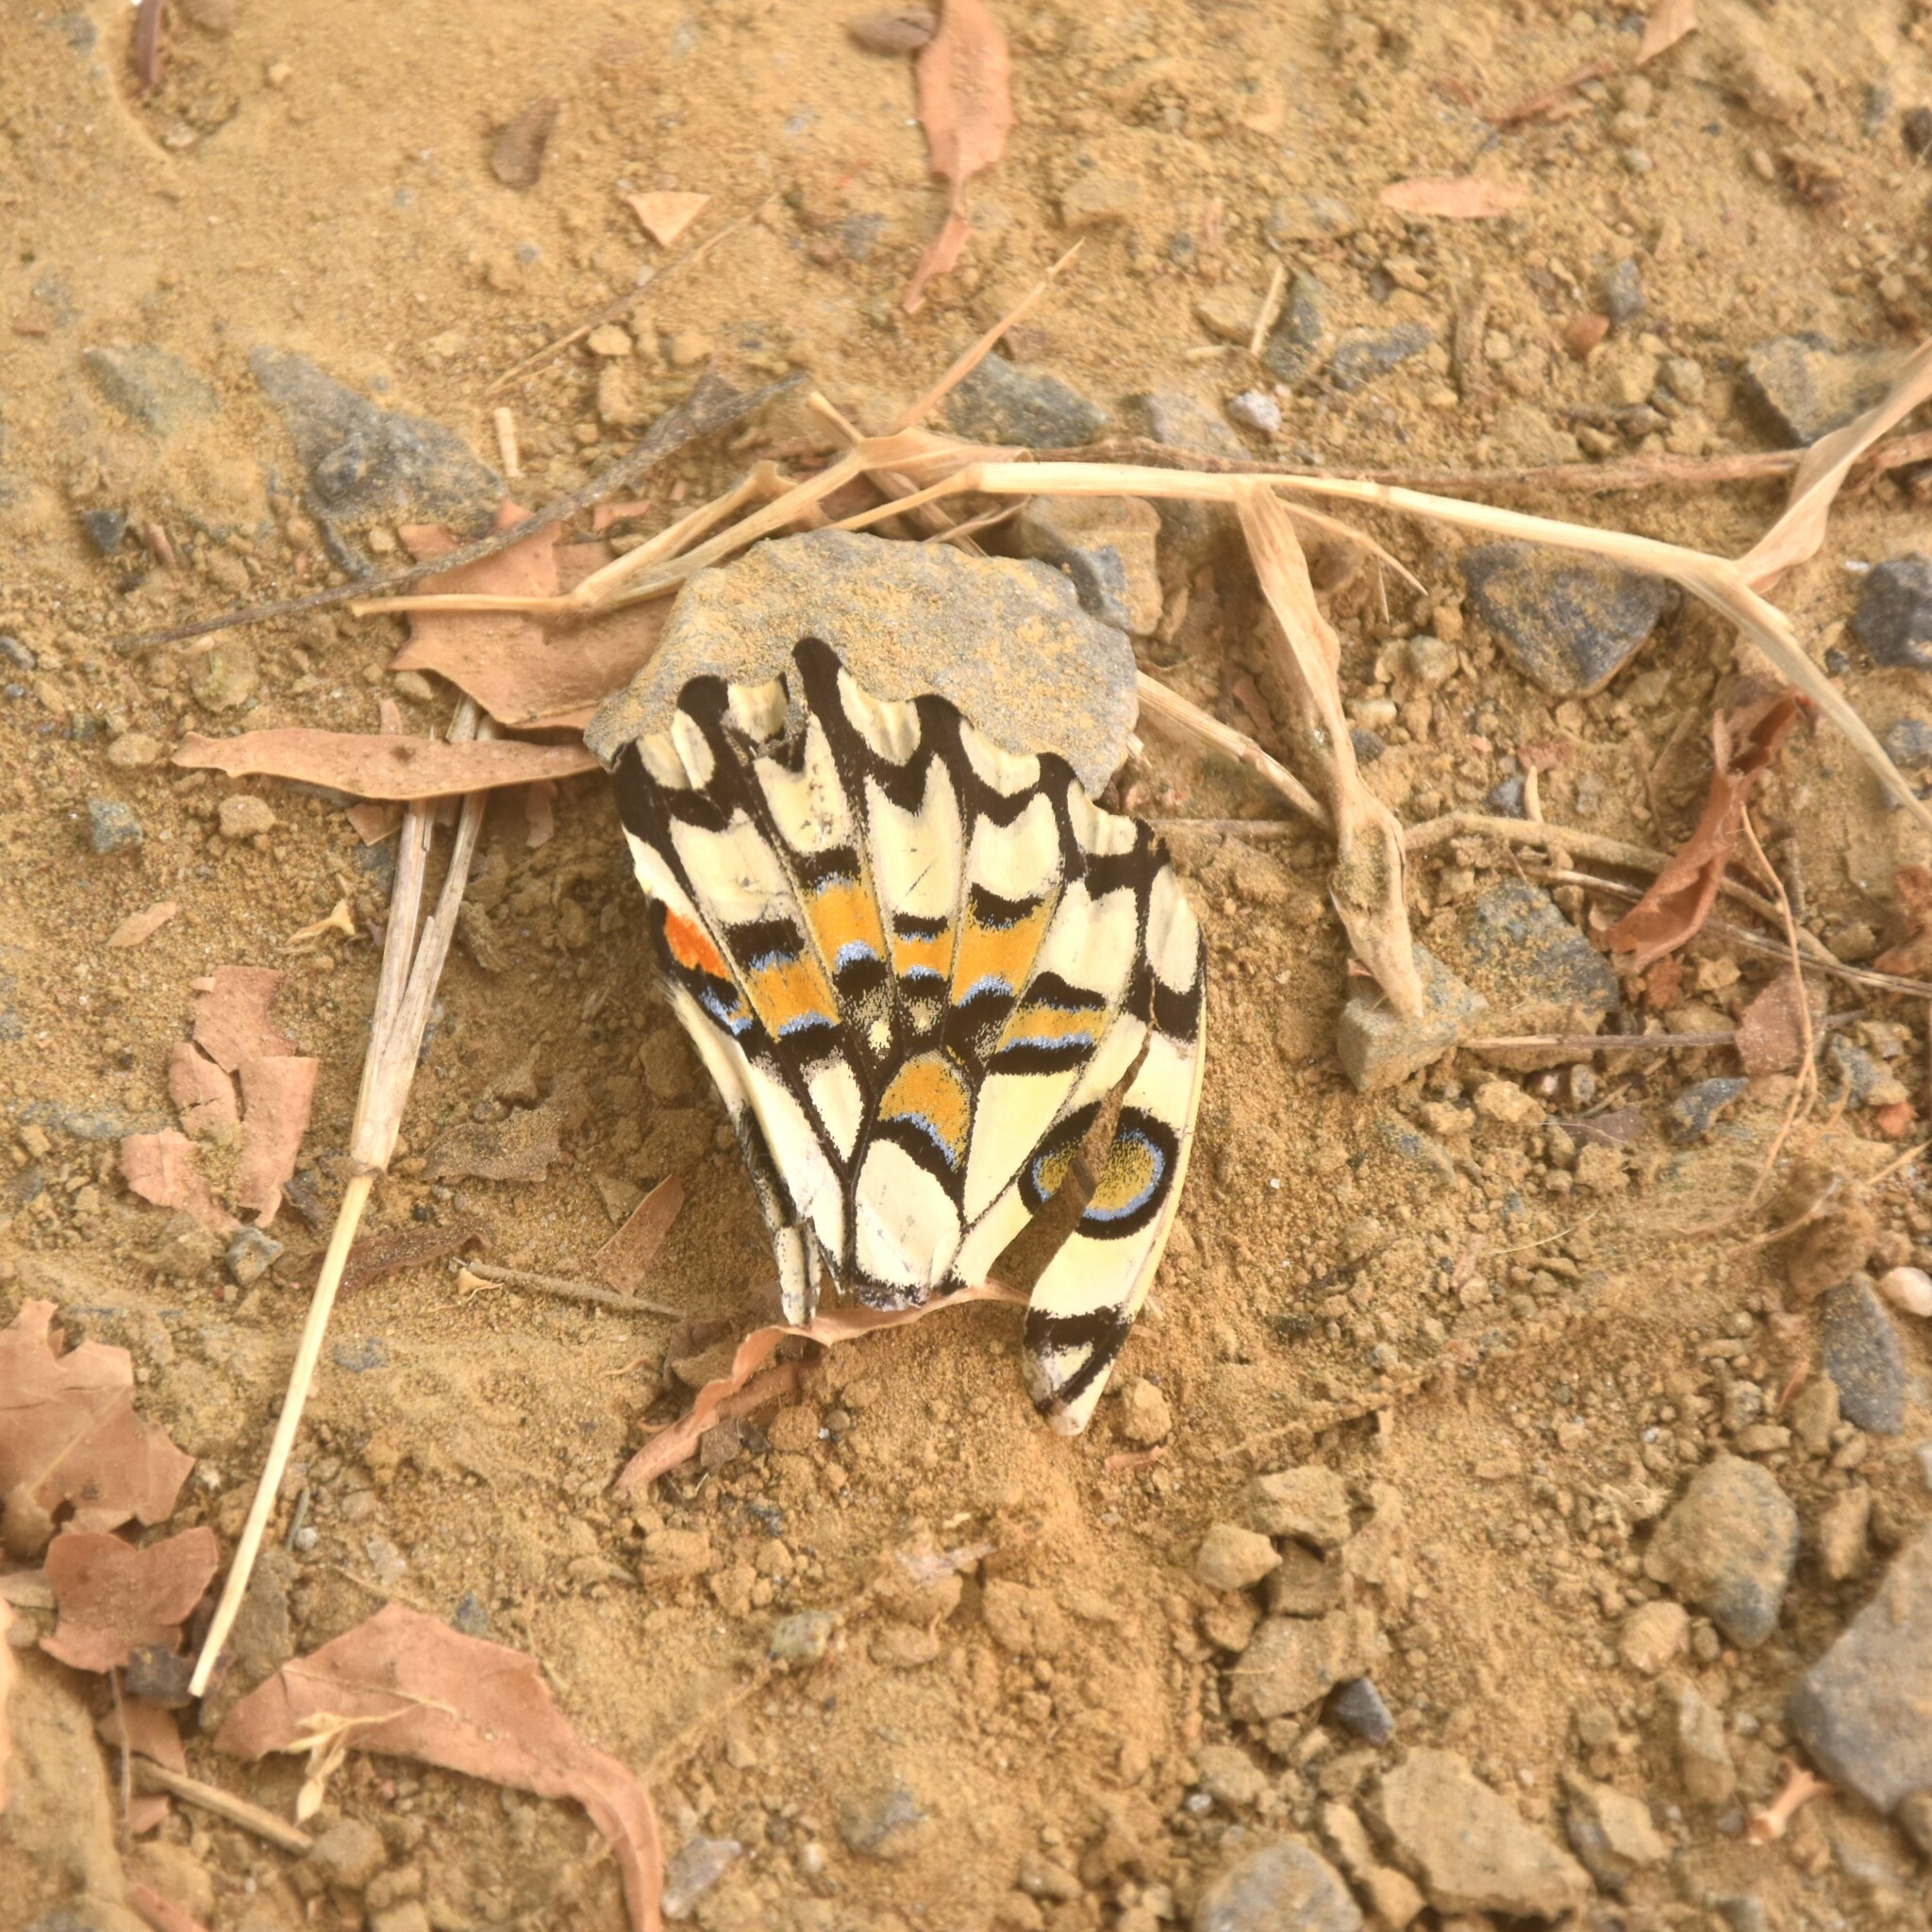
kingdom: Animalia
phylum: Arthropoda
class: Insecta
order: Lepidoptera
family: Papilionidae
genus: Papilio
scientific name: Papilio demoleus
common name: Lime butterfly
